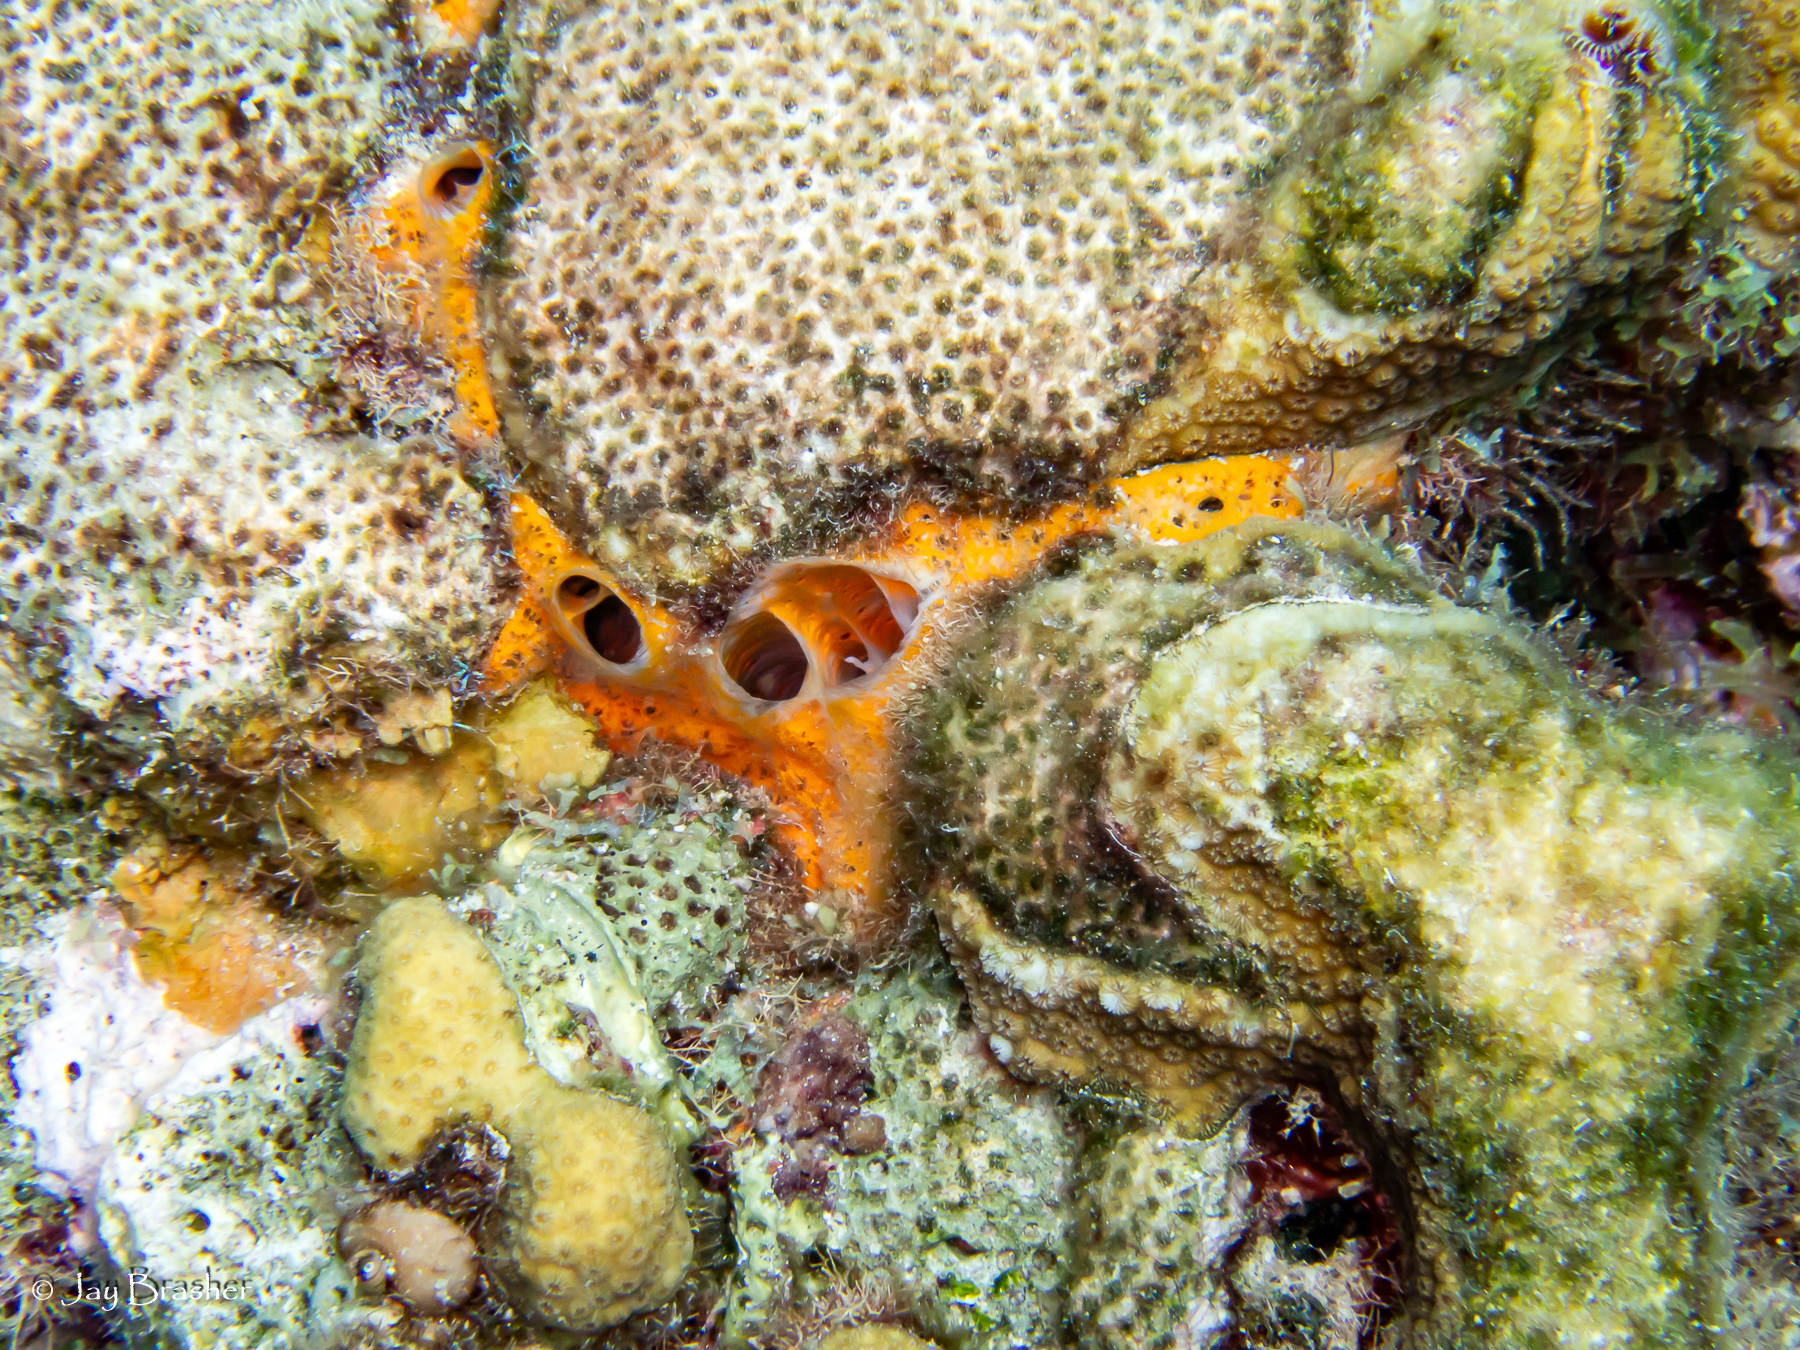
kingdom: Animalia
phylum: Porifera
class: Demospongiae
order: Poecilosclerida
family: Mycalidae
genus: Mycale
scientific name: Mycale laevis
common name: Orange icing sponge
